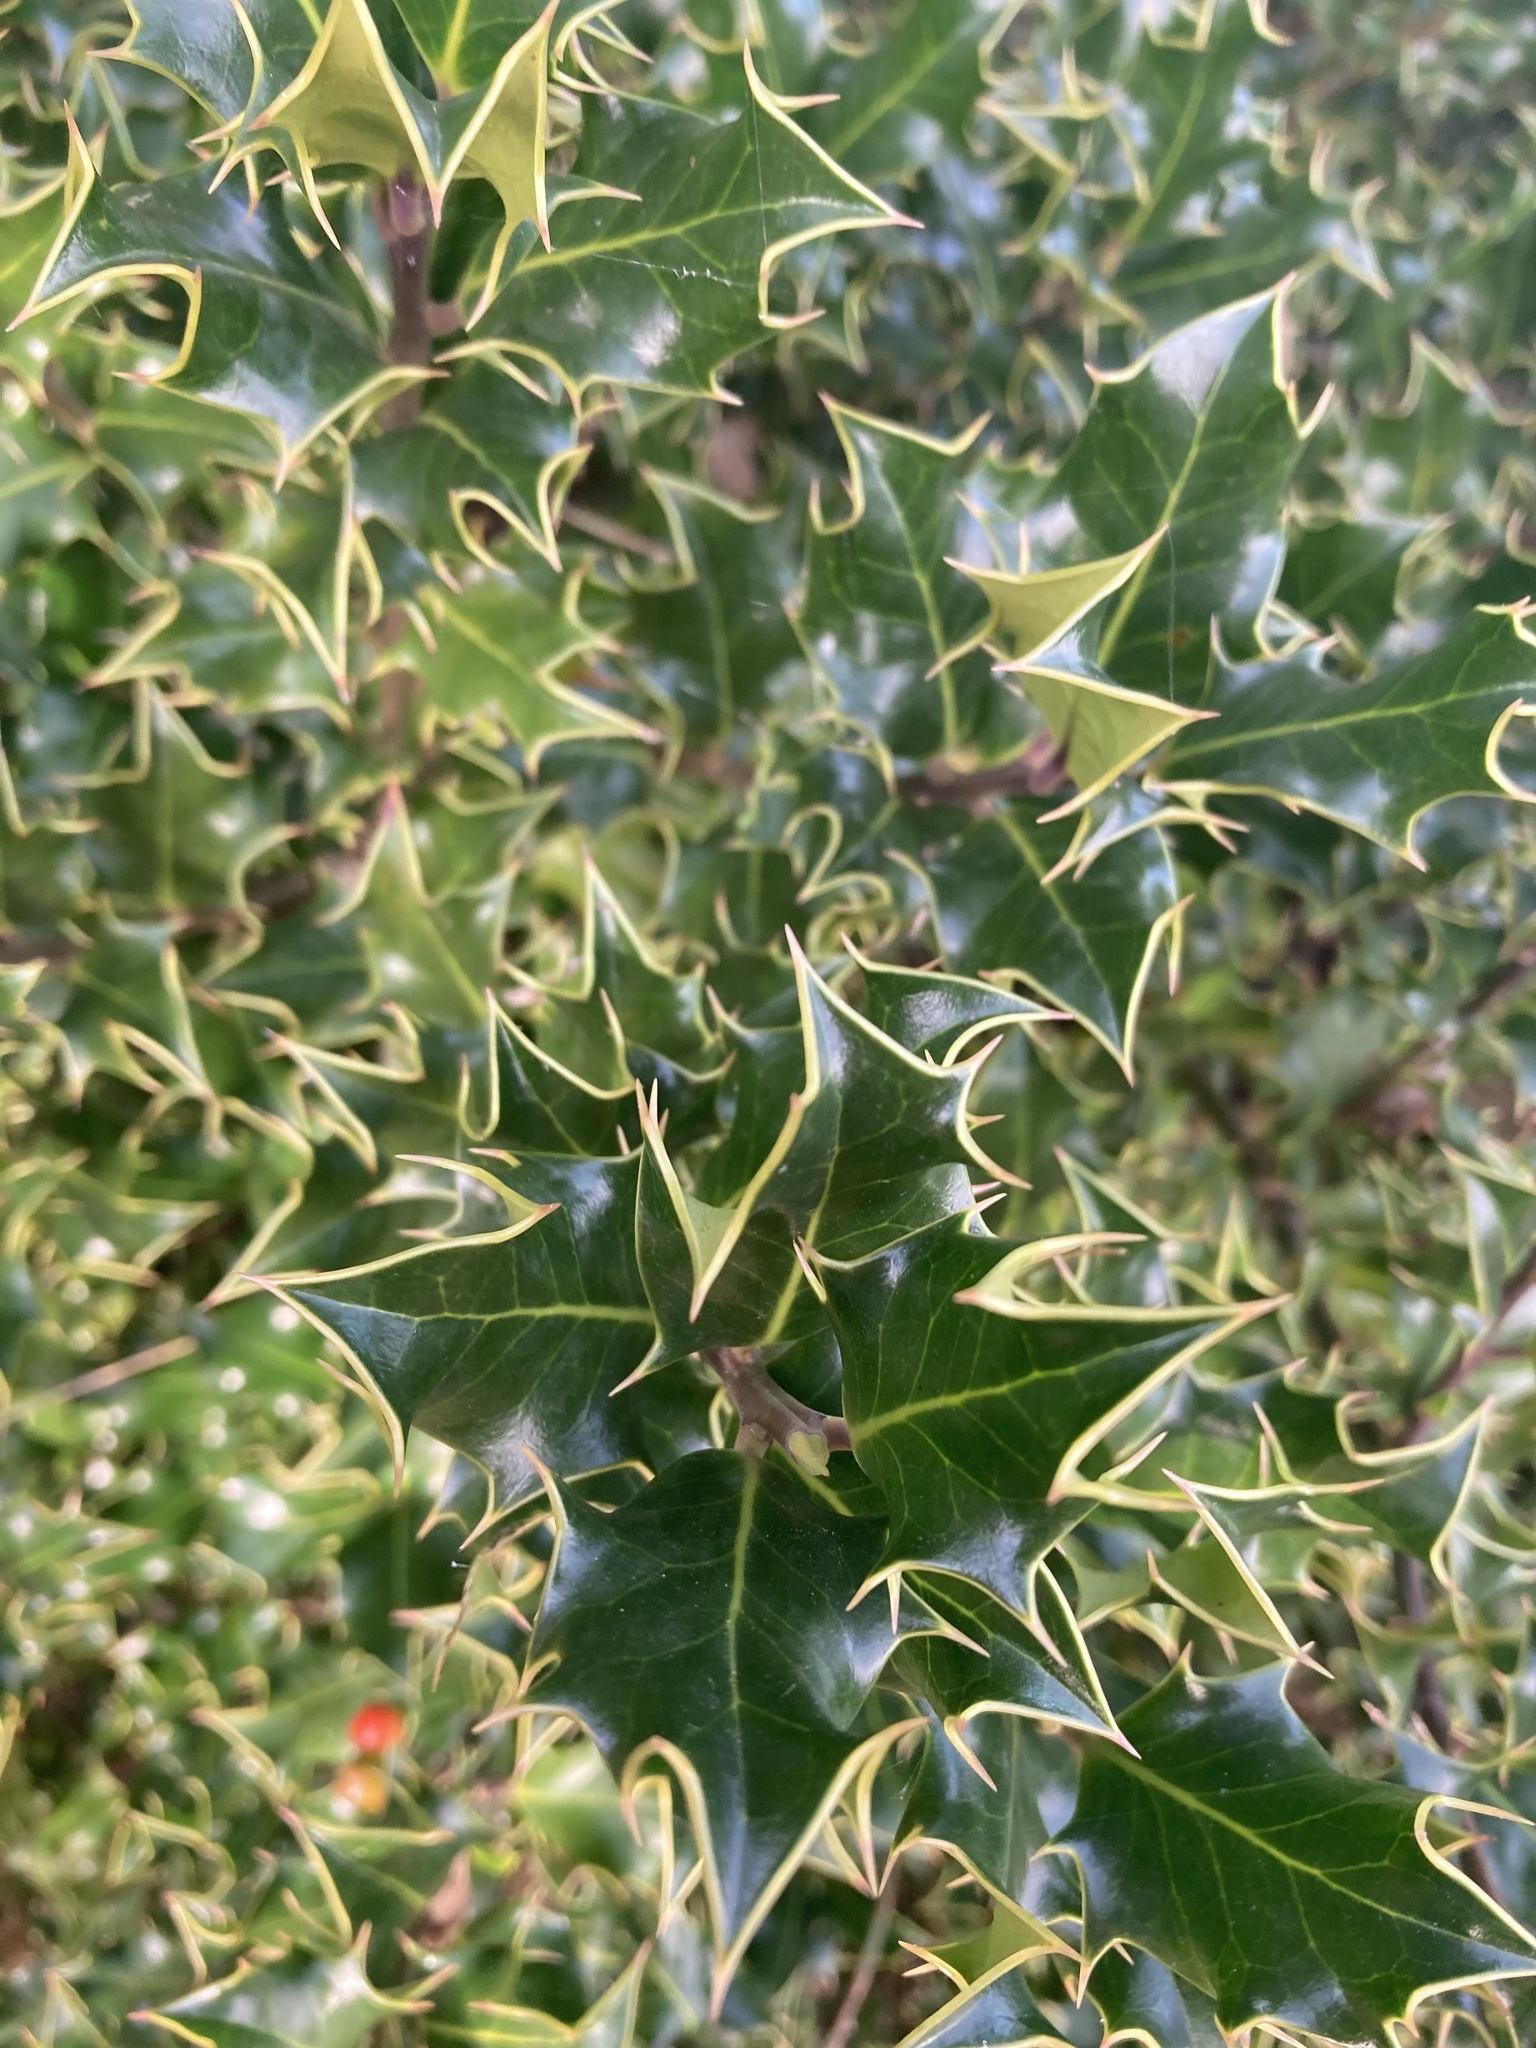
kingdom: Plantae
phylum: Tracheophyta
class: Magnoliopsida
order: Aquifoliales
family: Aquifoliaceae
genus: Ilex
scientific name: Ilex aquifolium
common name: English holly
